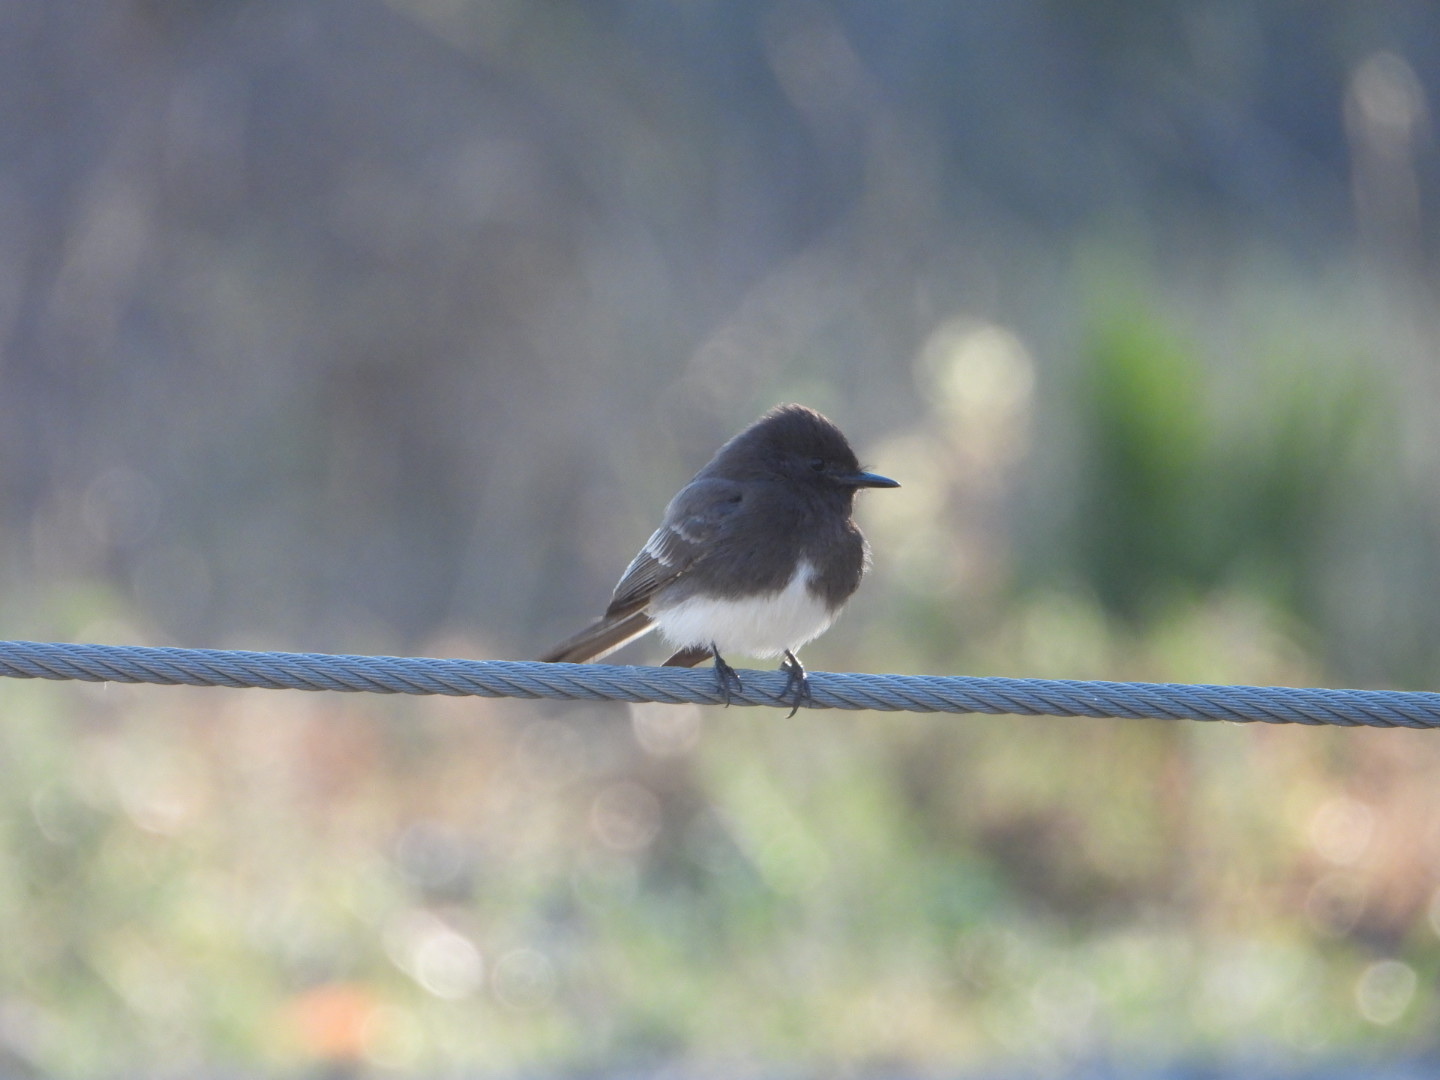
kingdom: Animalia
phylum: Chordata
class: Aves
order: Passeriformes
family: Tyrannidae
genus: Sayornis
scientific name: Sayornis nigricans
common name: Black phoebe
